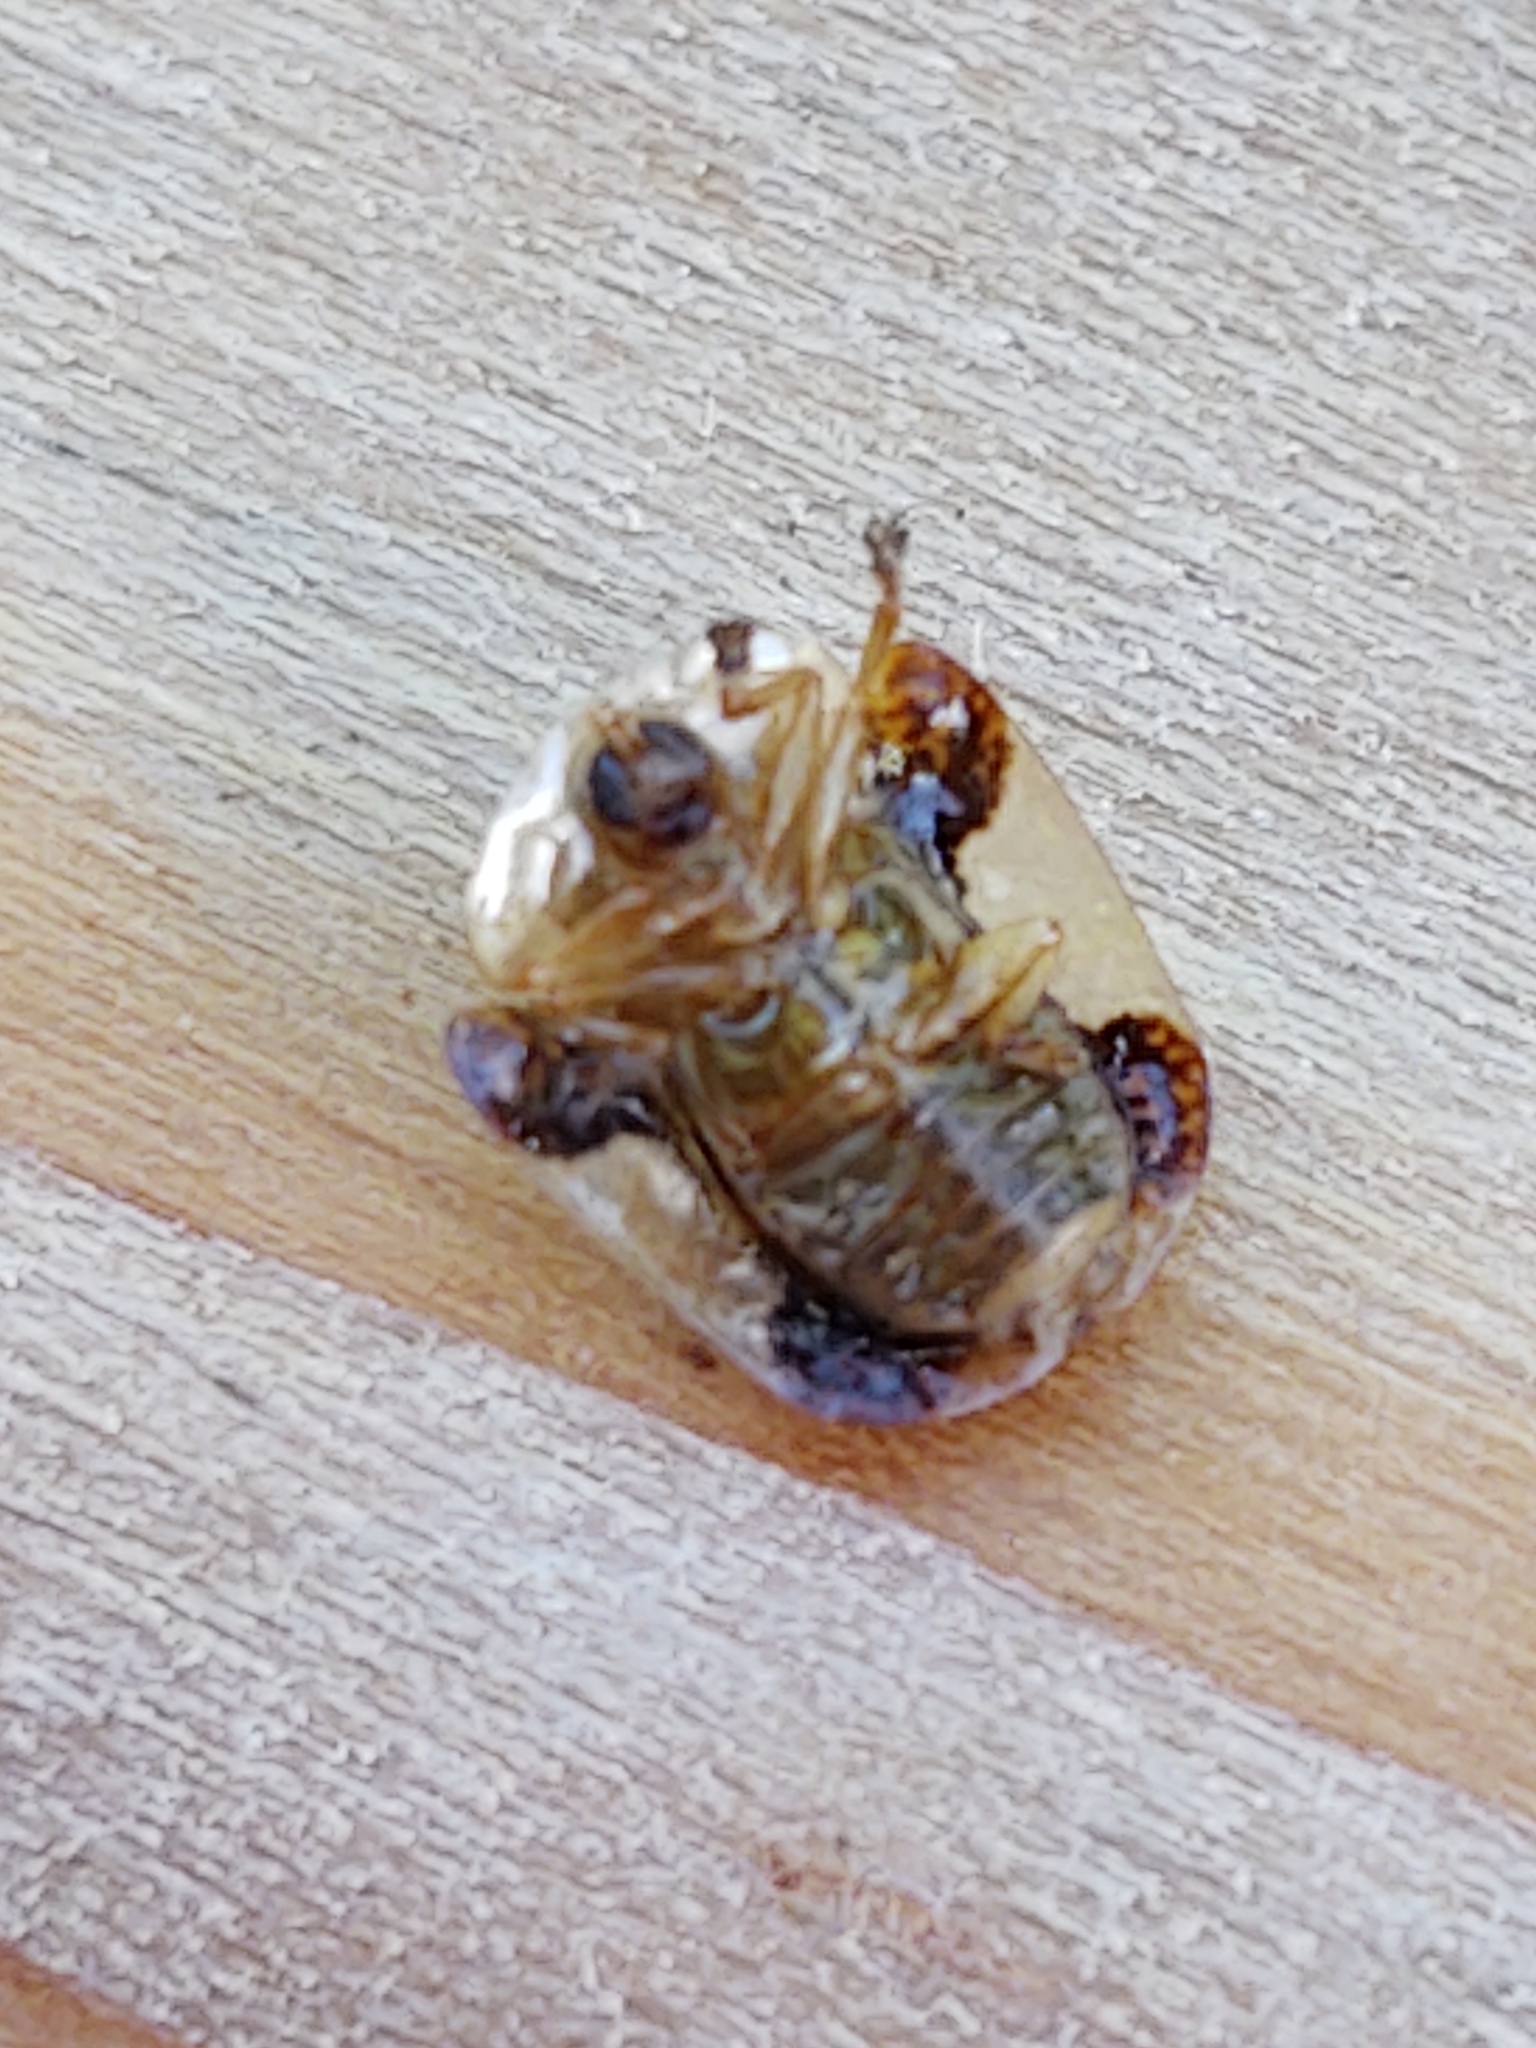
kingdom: Animalia
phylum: Arthropoda
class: Insecta
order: Coleoptera
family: Chrysomelidae
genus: Helocassis
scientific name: Helocassis clavata
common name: Clavate tortoise beetle
